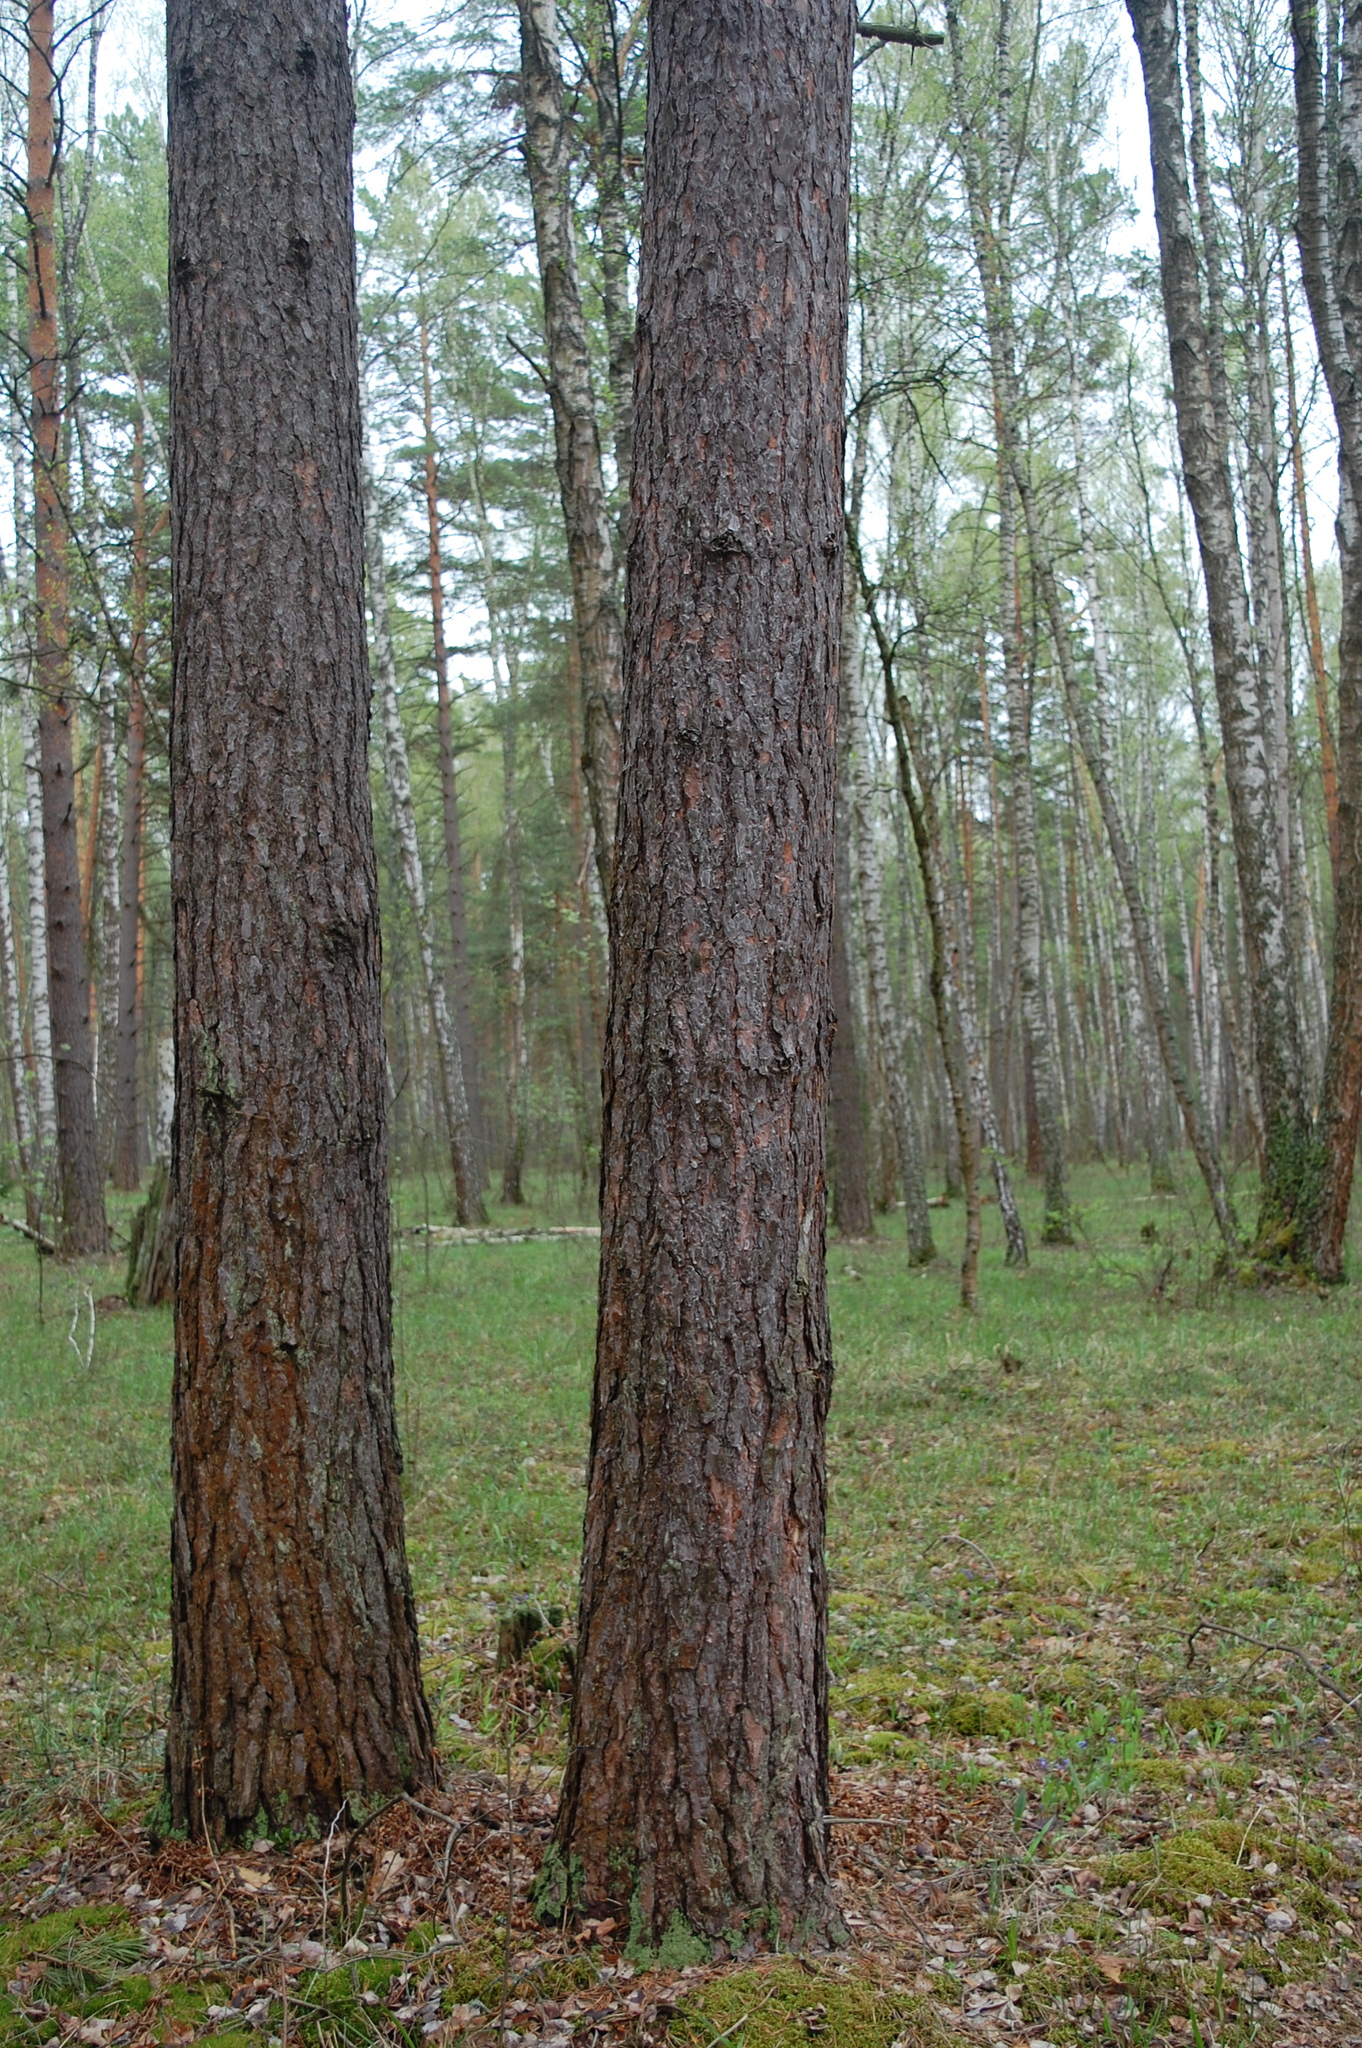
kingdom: Plantae
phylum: Tracheophyta
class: Pinopsida
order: Pinales
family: Pinaceae
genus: Pinus
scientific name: Pinus sylvestris
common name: Scots pine
